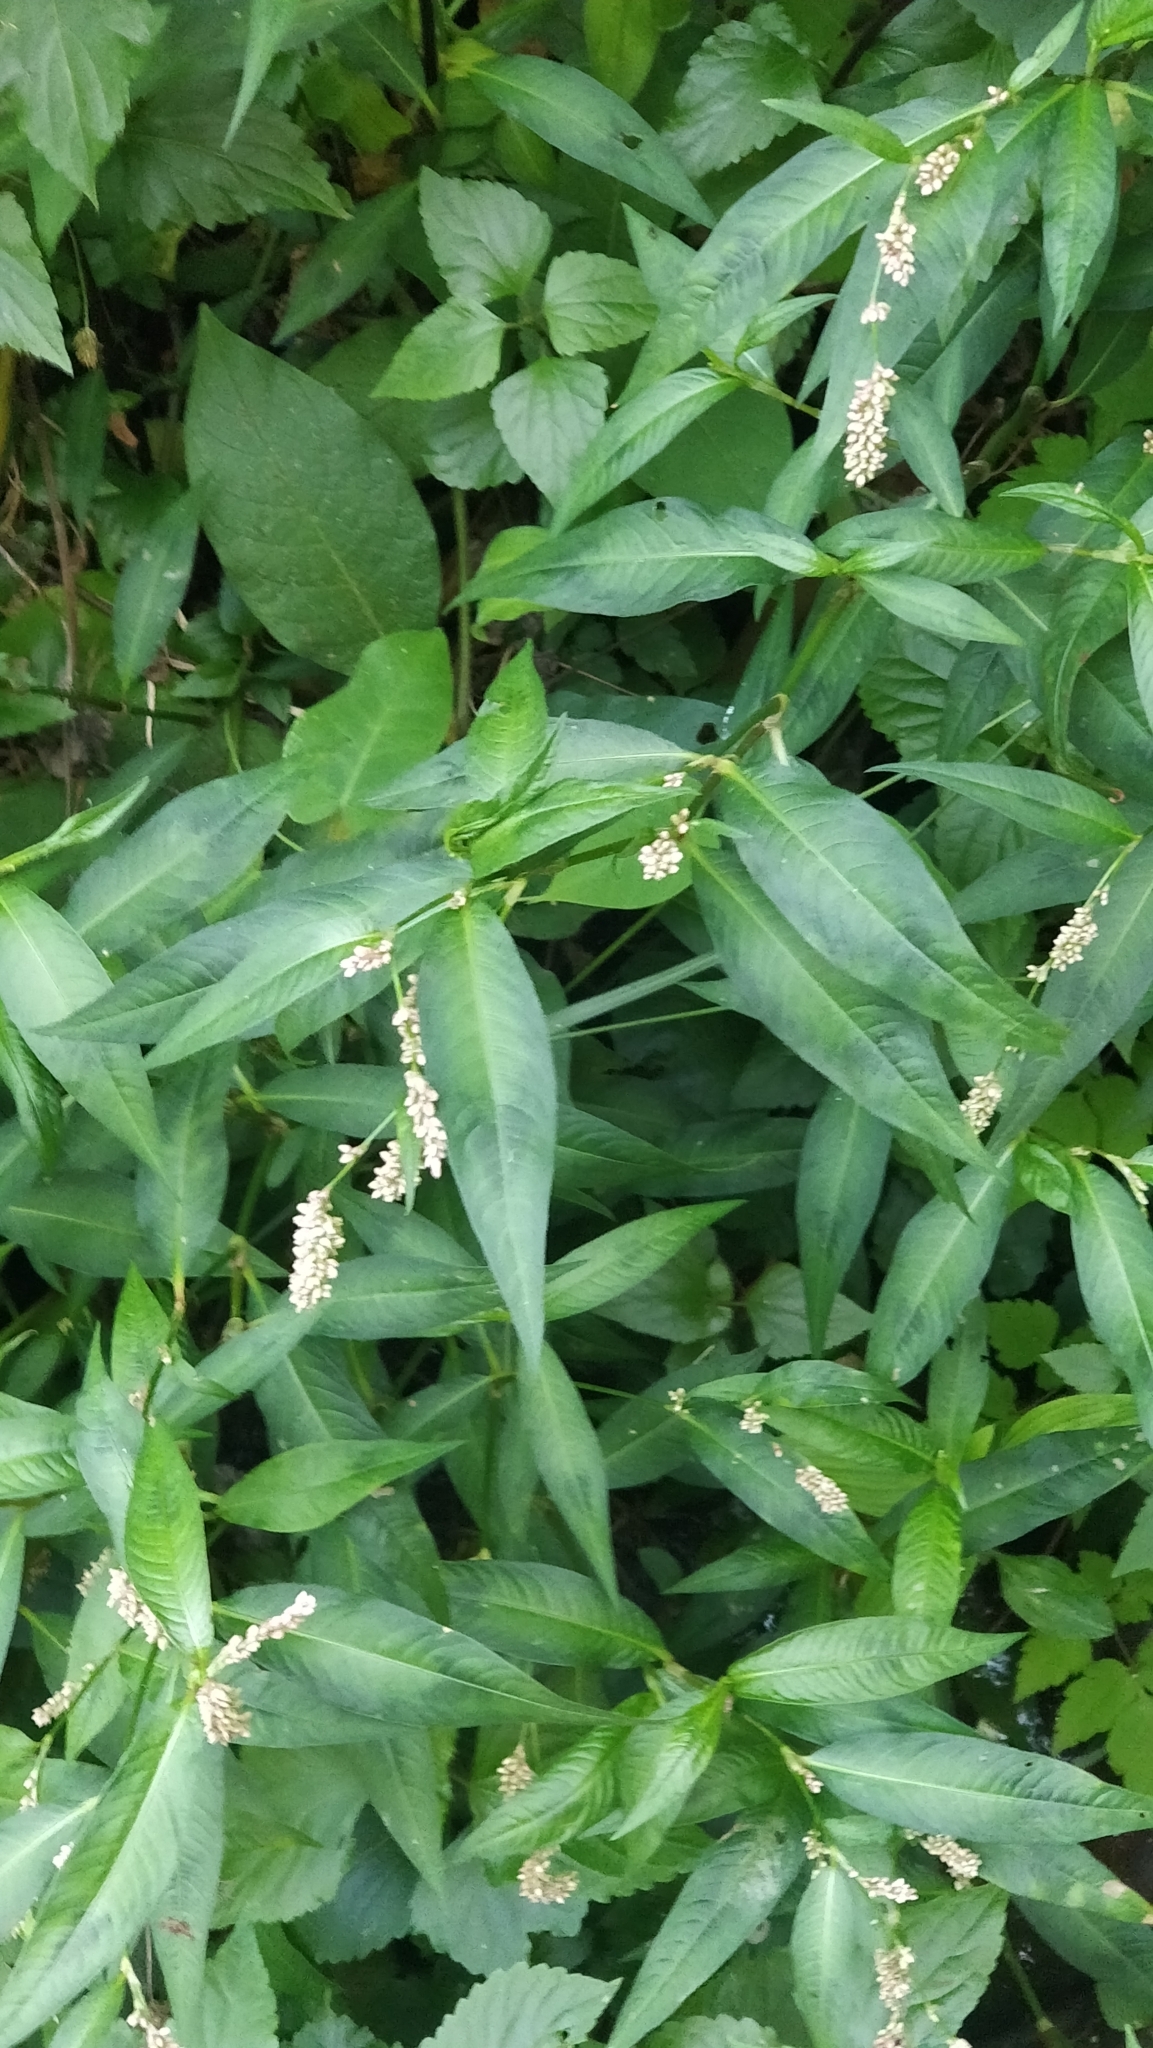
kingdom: Plantae
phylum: Tracheophyta
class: Magnoliopsida
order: Caryophyllales
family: Polygonaceae
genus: Persicaria
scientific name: Persicaria maculosa
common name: Redshank
